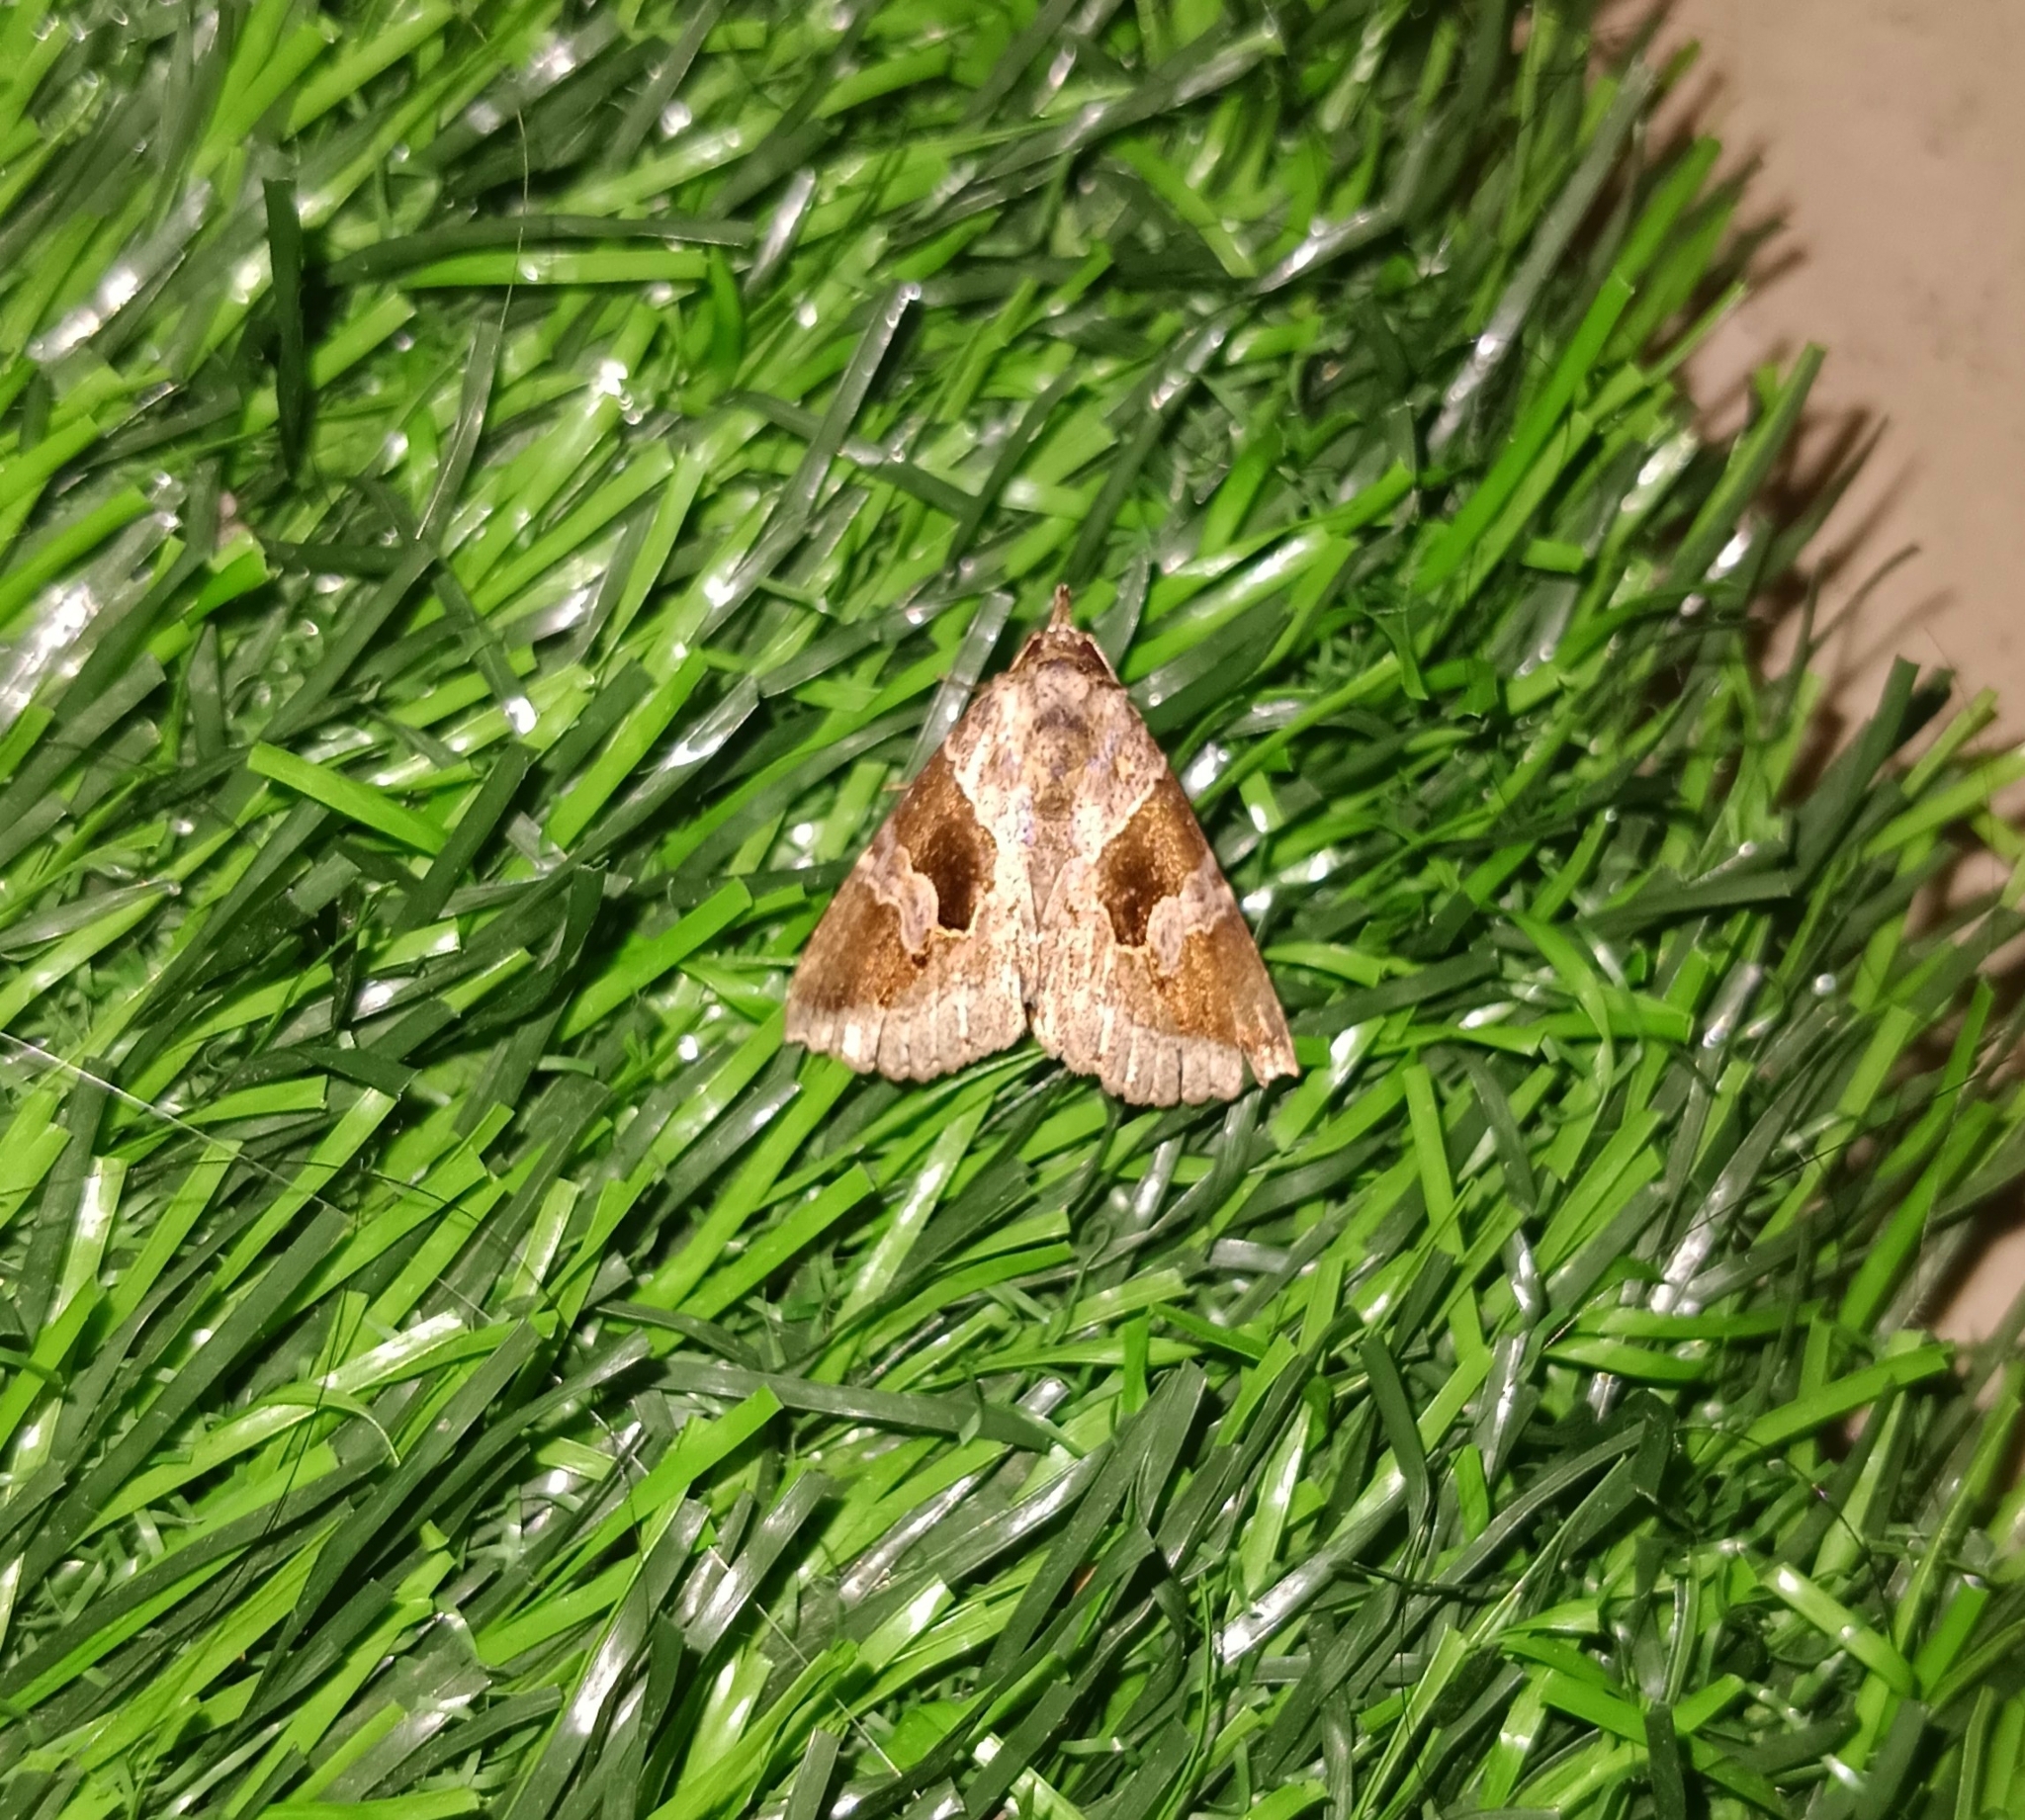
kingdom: Animalia
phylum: Arthropoda
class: Insecta
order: Lepidoptera
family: Erebidae
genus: Sarobela
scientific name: Sarobela litterata
